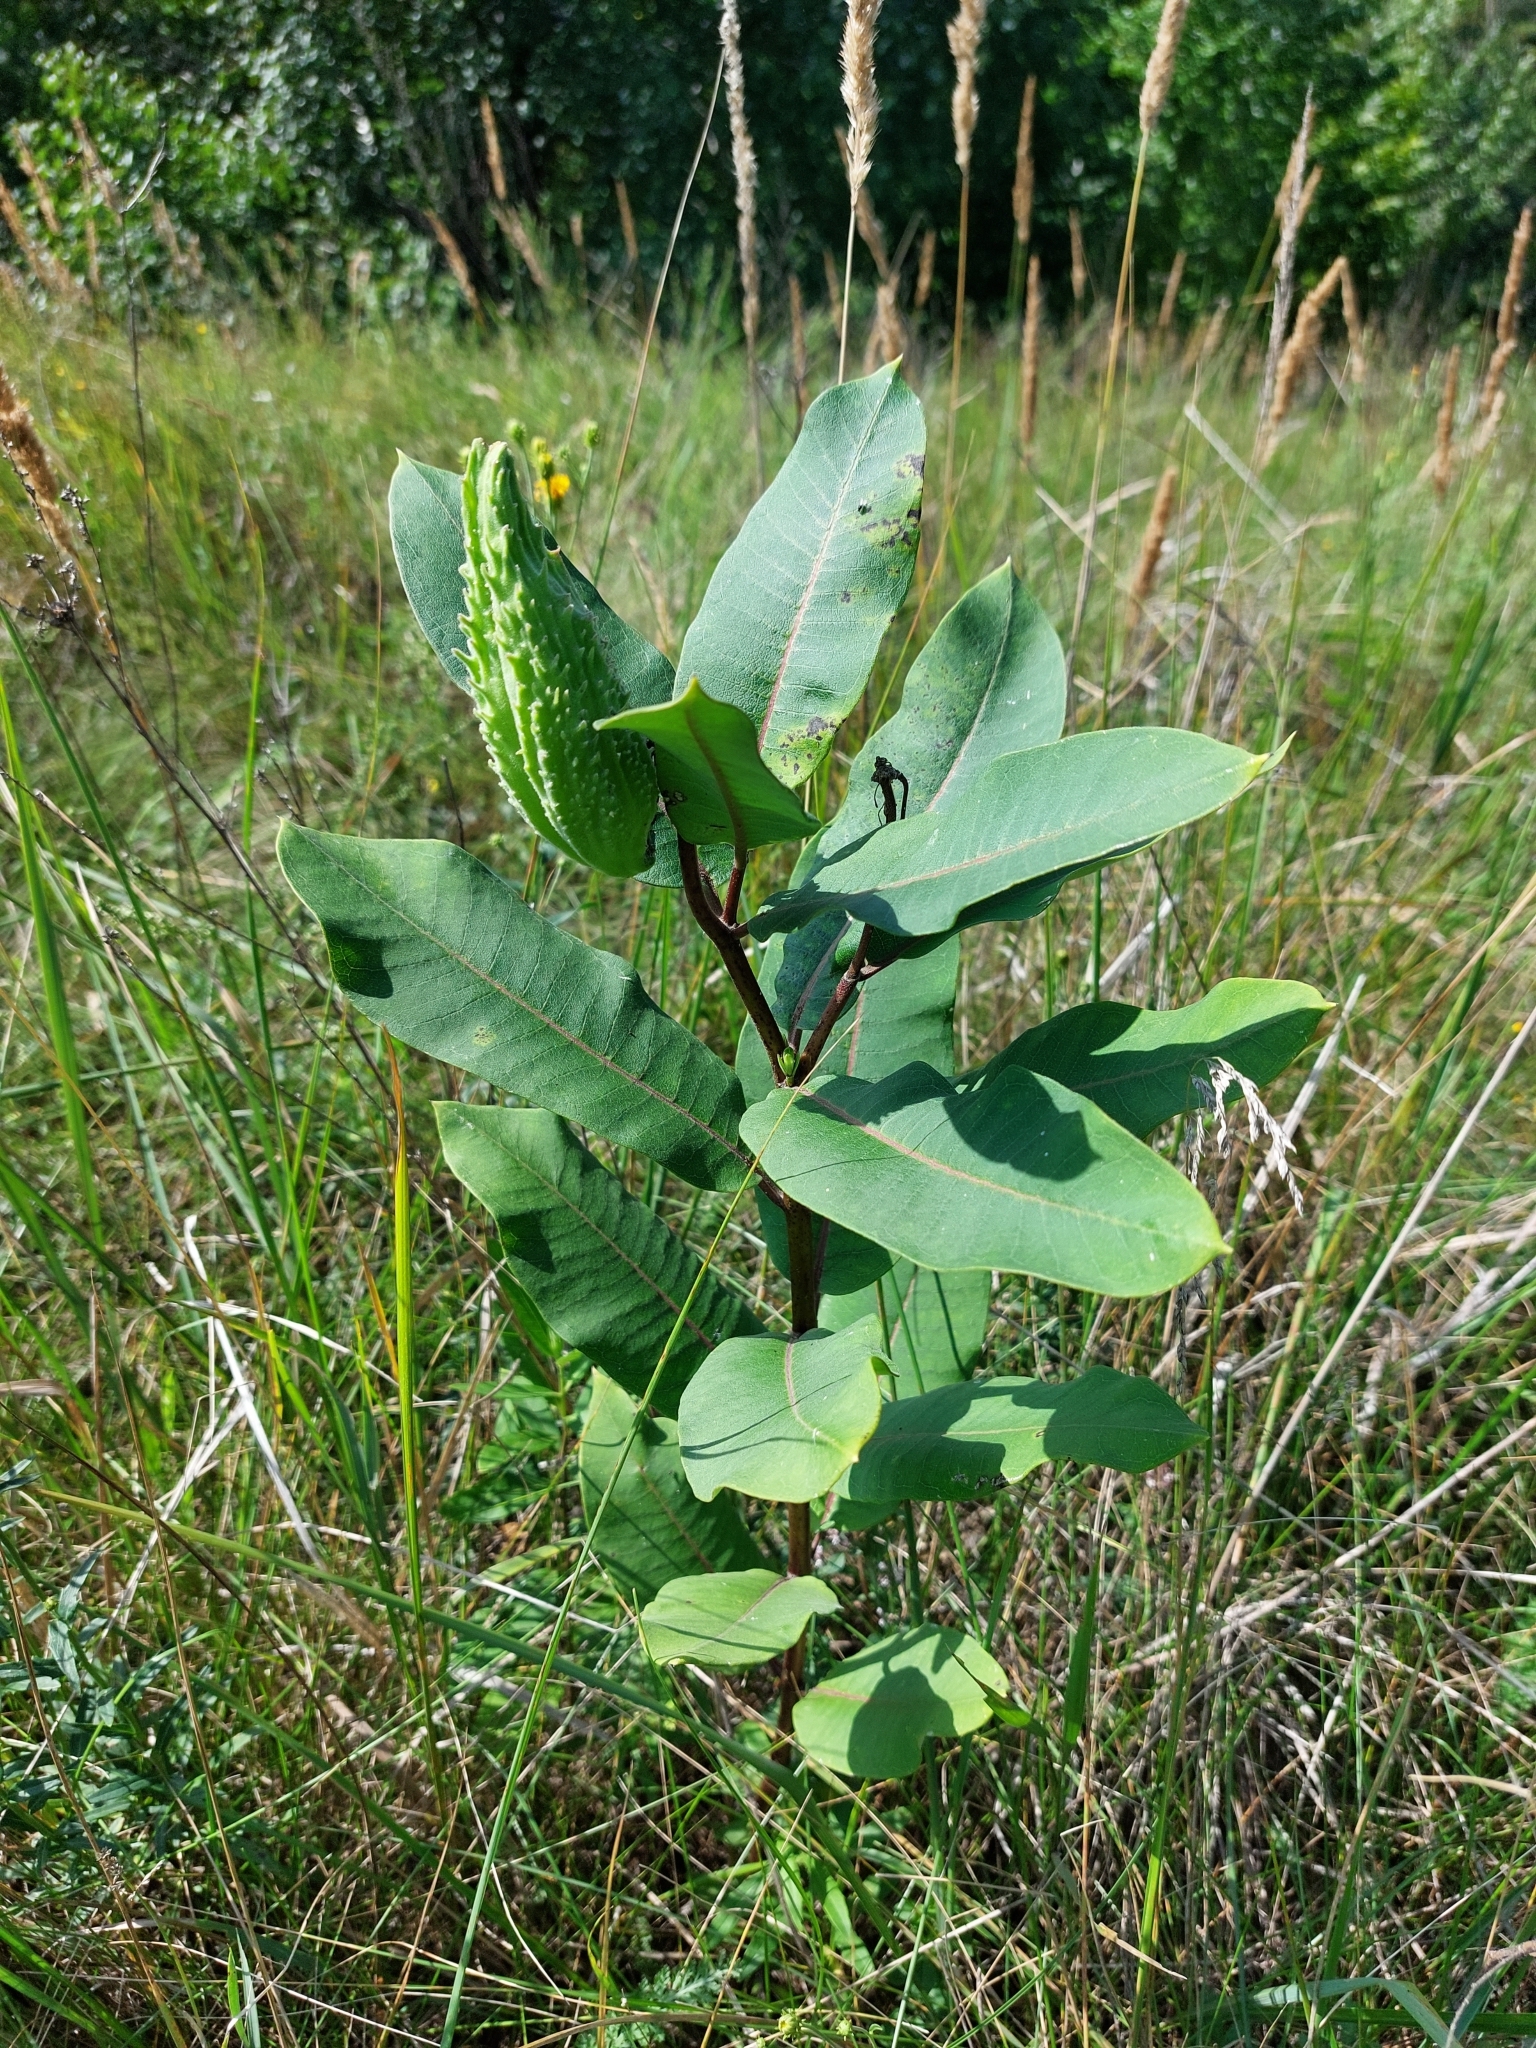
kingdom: Plantae
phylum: Tracheophyta
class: Magnoliopsida
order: Gentianales
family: Apocynaceae
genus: Asclepias
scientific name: Asclepias syriaca
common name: Common milkweed
